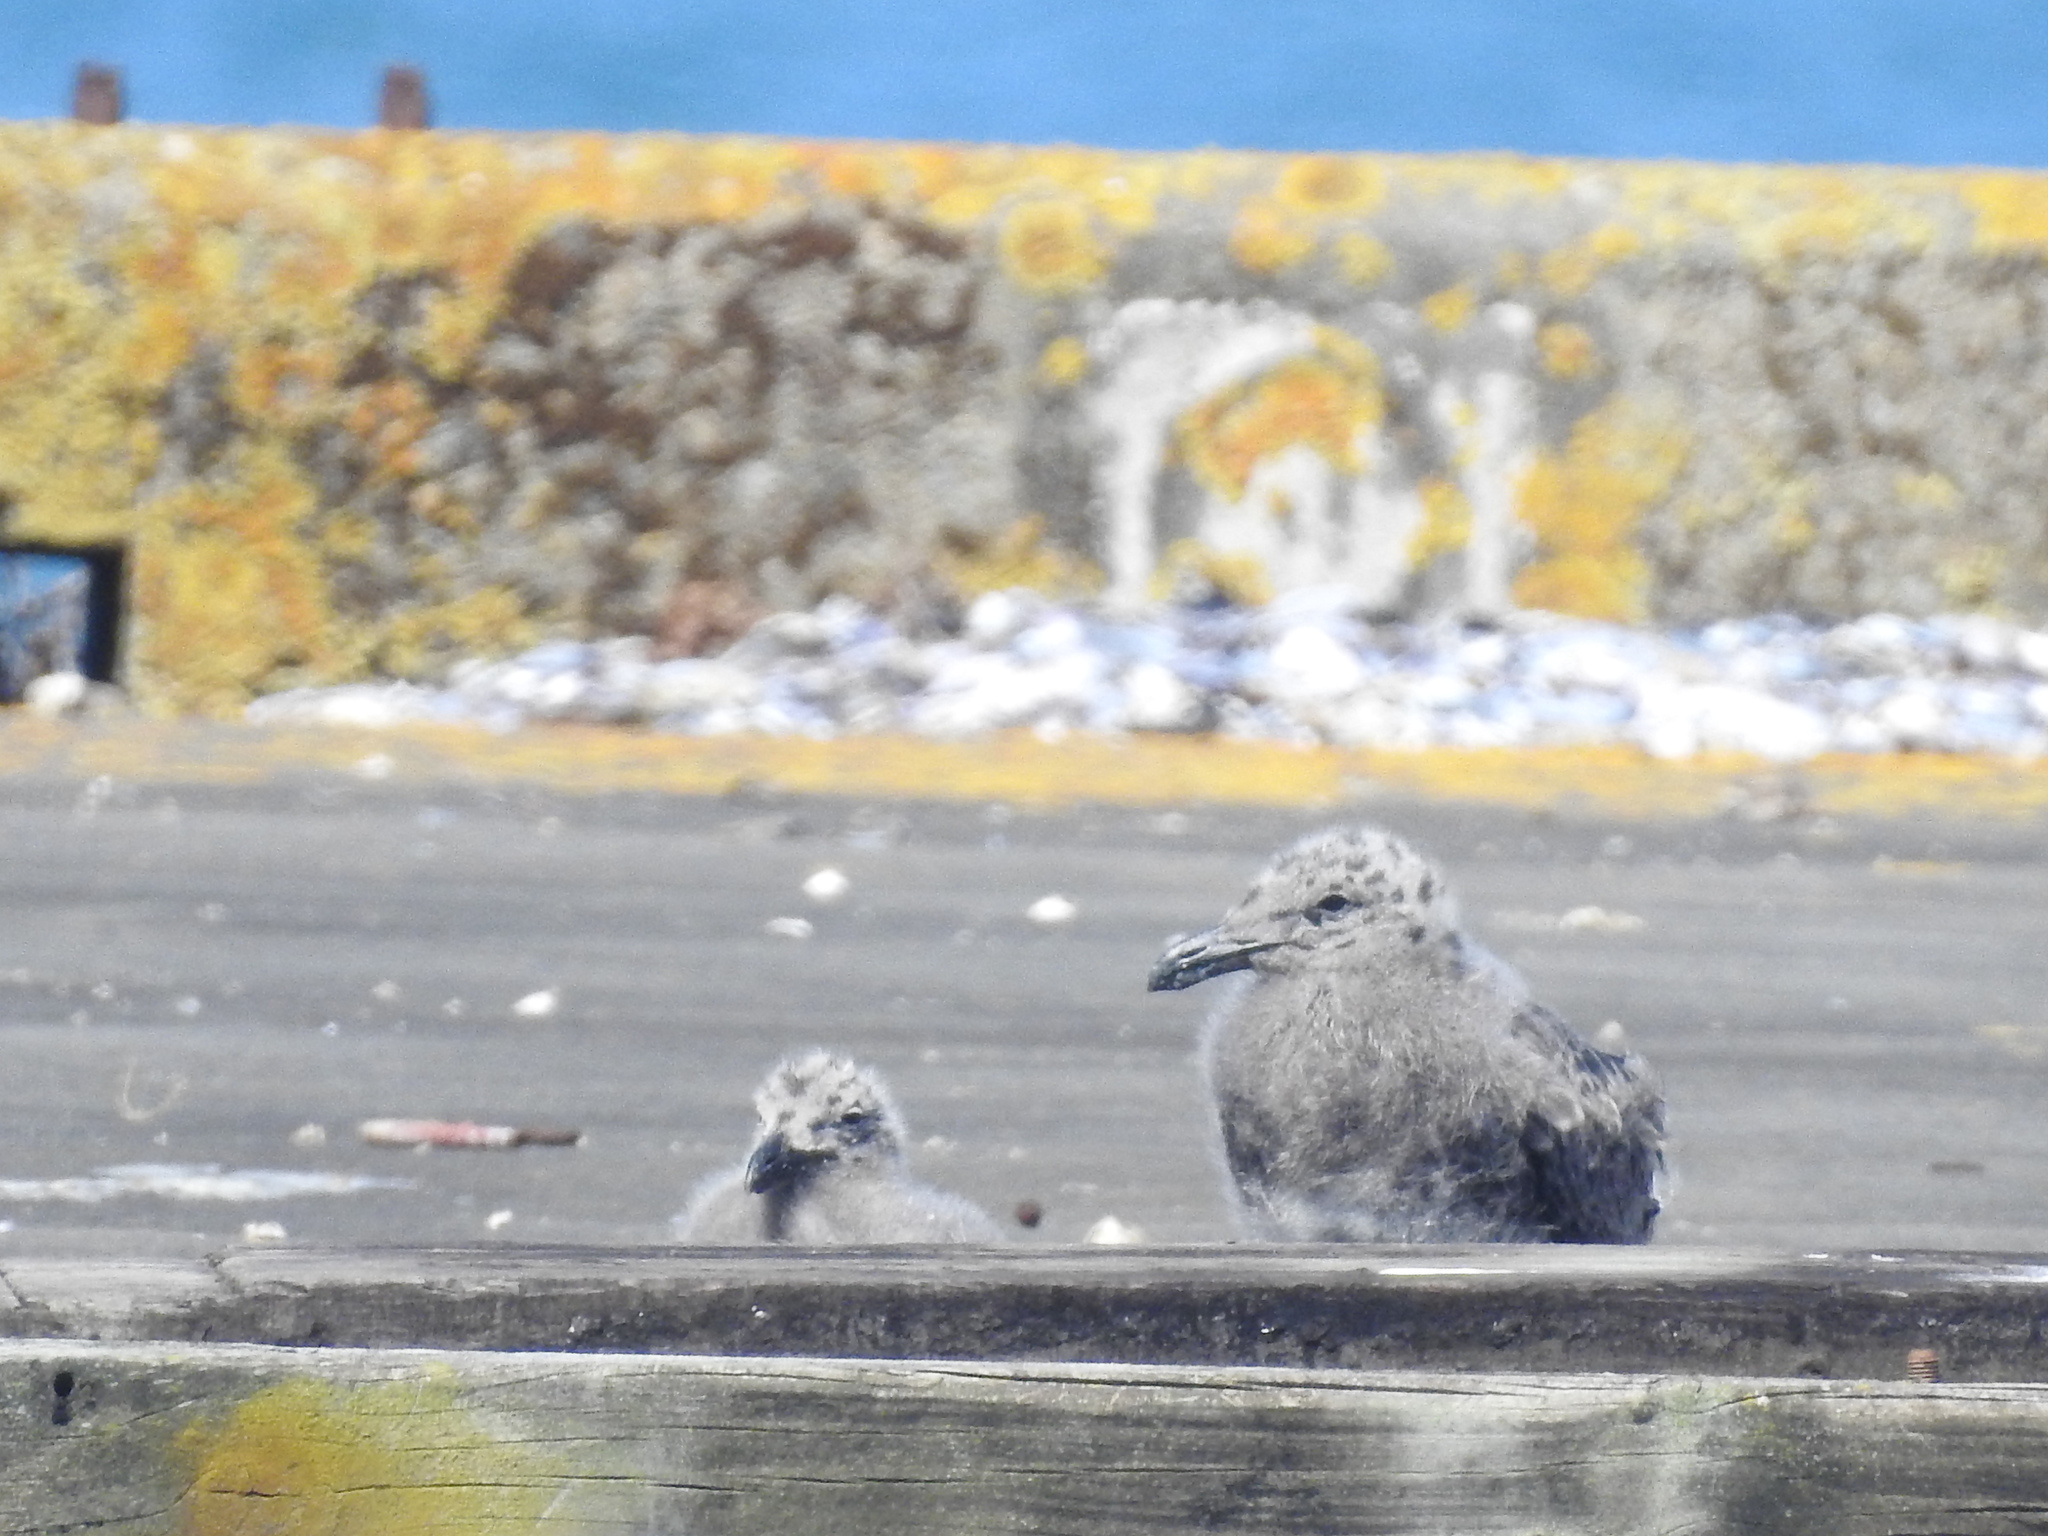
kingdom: Animalia
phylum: Chordata
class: Aves
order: Charadriiformes
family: Laridae
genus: Larus
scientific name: Larus dominicanus
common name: Kelp gull
